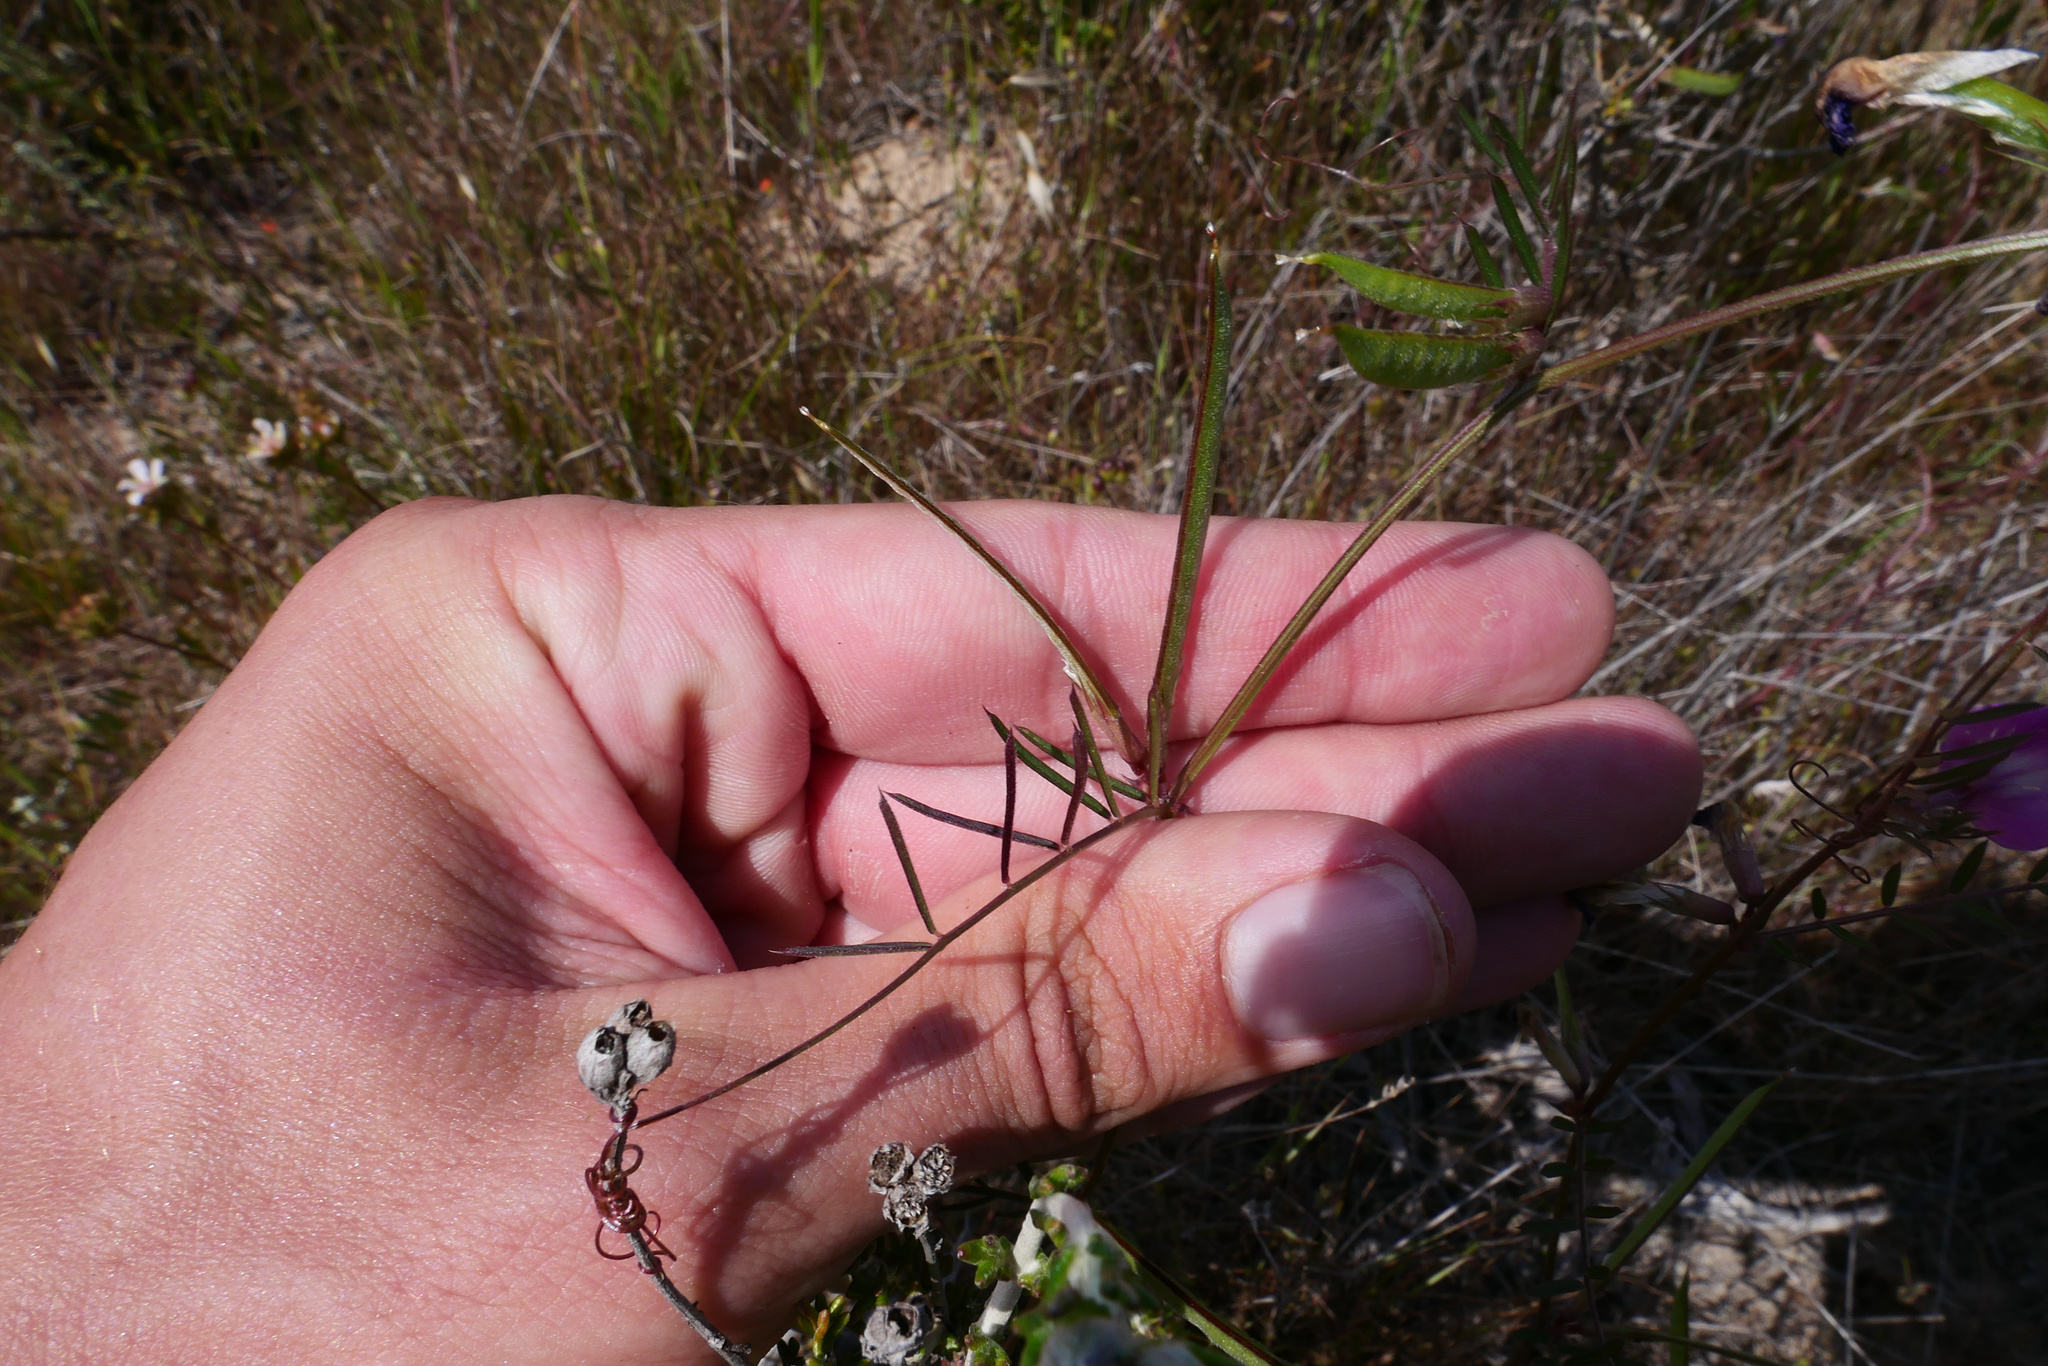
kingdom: Plantae
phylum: Tracheophyta
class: Magnoliopsida
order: Fabales
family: Fabaceae
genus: Vicia
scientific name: Vicia sativa
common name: Garden vetch
